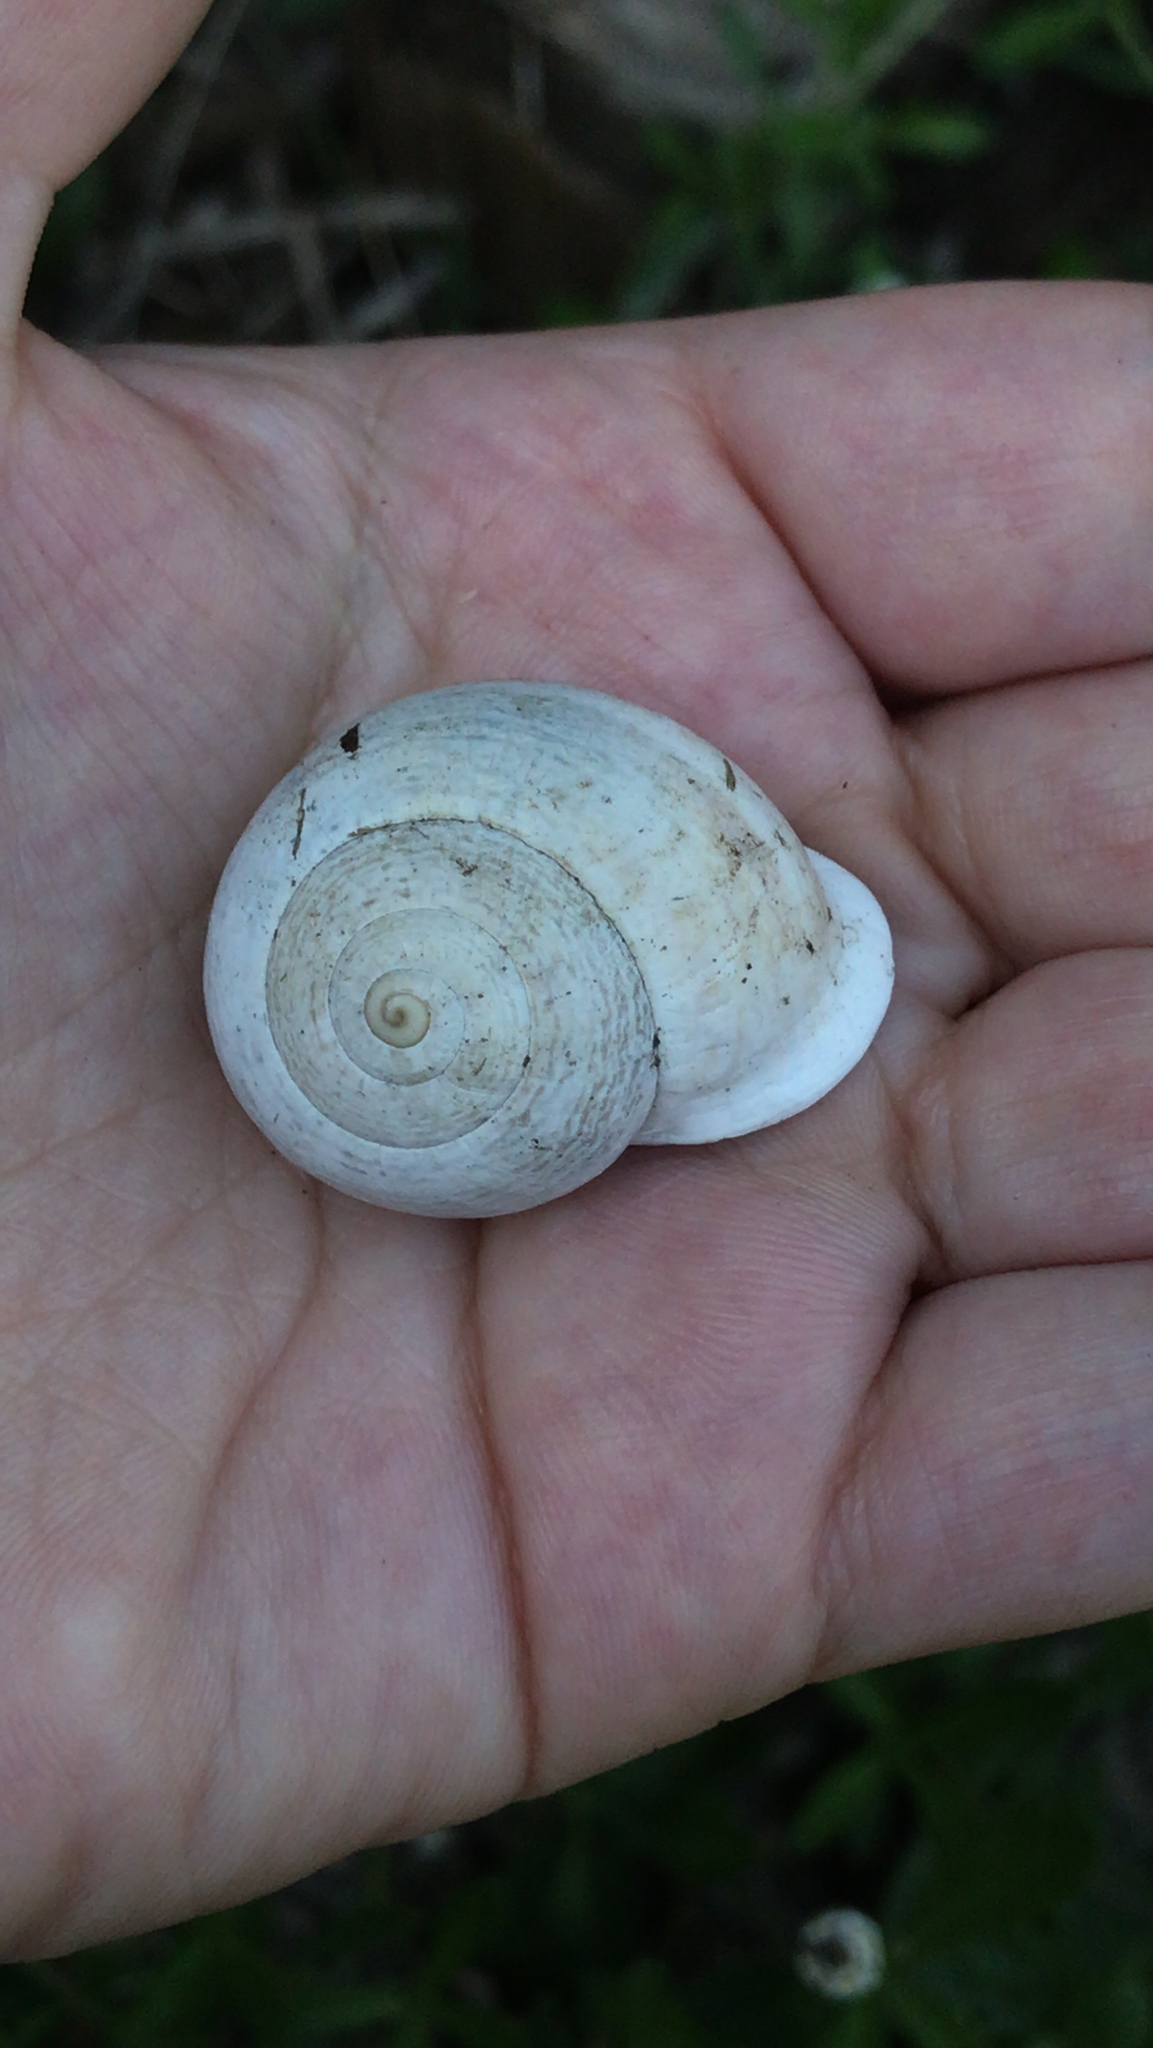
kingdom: Animalia
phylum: Mollusca
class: Gastropoda
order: Stylommatophora
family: Helicidae
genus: Otala
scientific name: Otala lactea
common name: Milk snail
